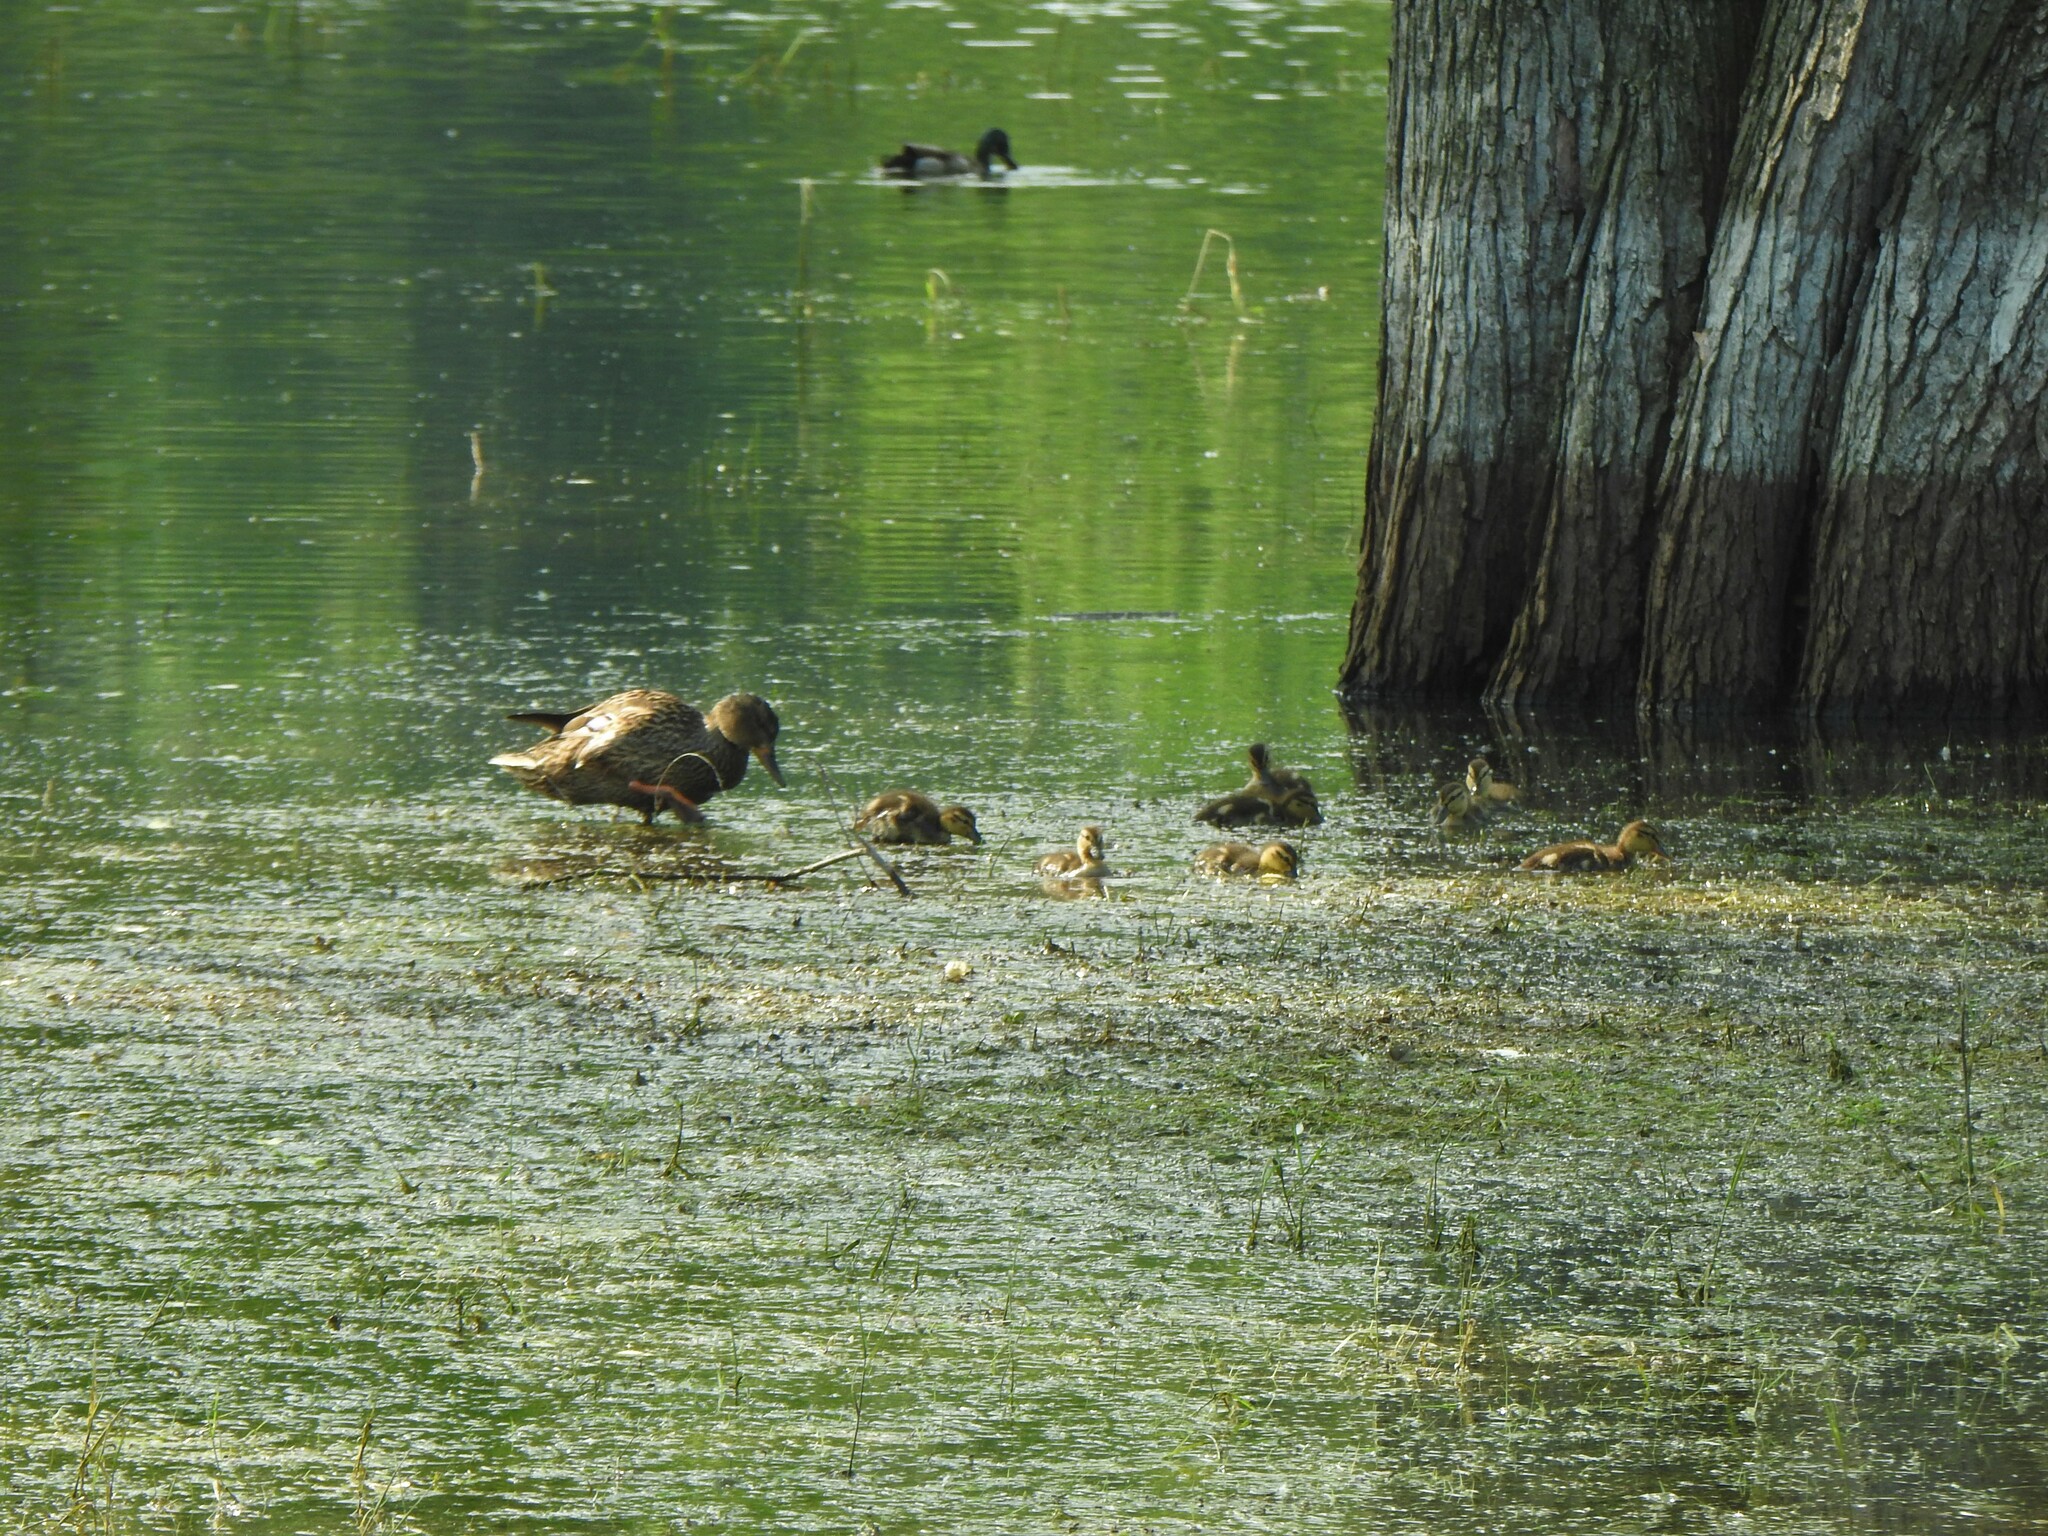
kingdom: Animalia
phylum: Chordata
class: Aves
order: Anseriformes
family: Anatidae
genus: Anas
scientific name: Anas platyrhynchos
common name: Mallard
